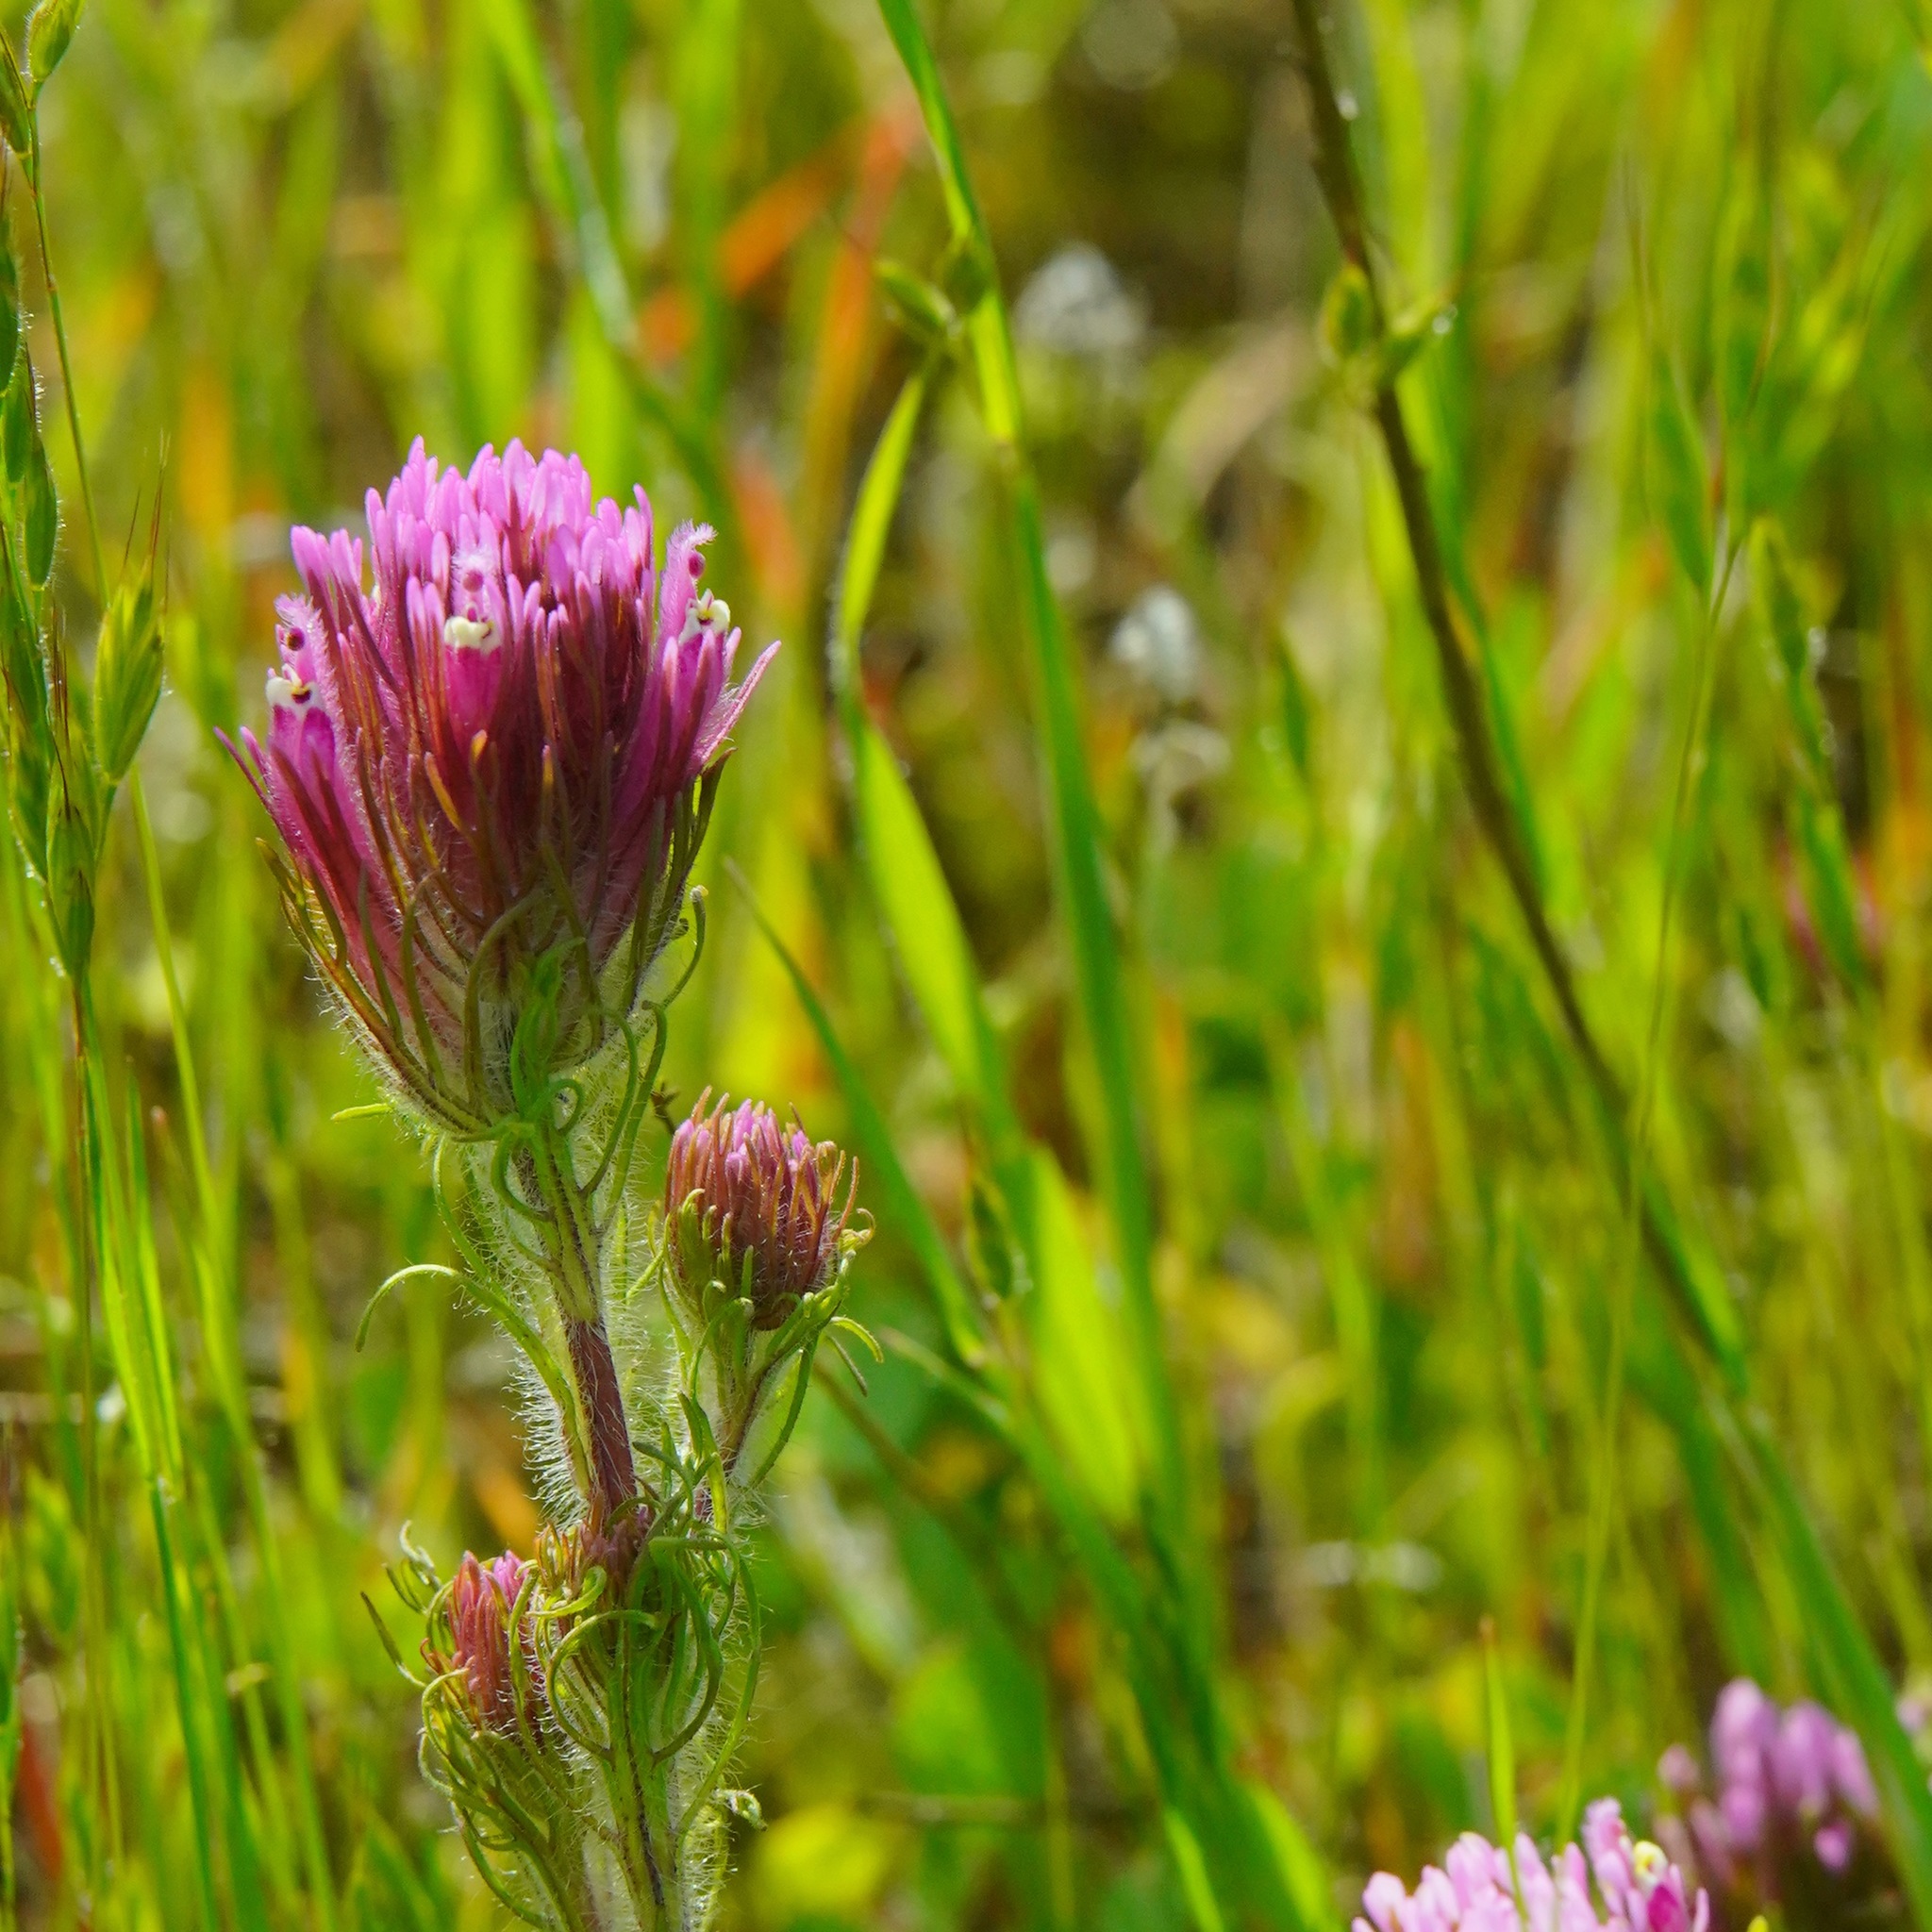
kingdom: Plantae
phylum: Tracheophyta
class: Magnoliopsida
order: Lamiales
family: Orobanchaceae
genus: Castilleja
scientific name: Castilleja exserta
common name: Purple owl-clover
